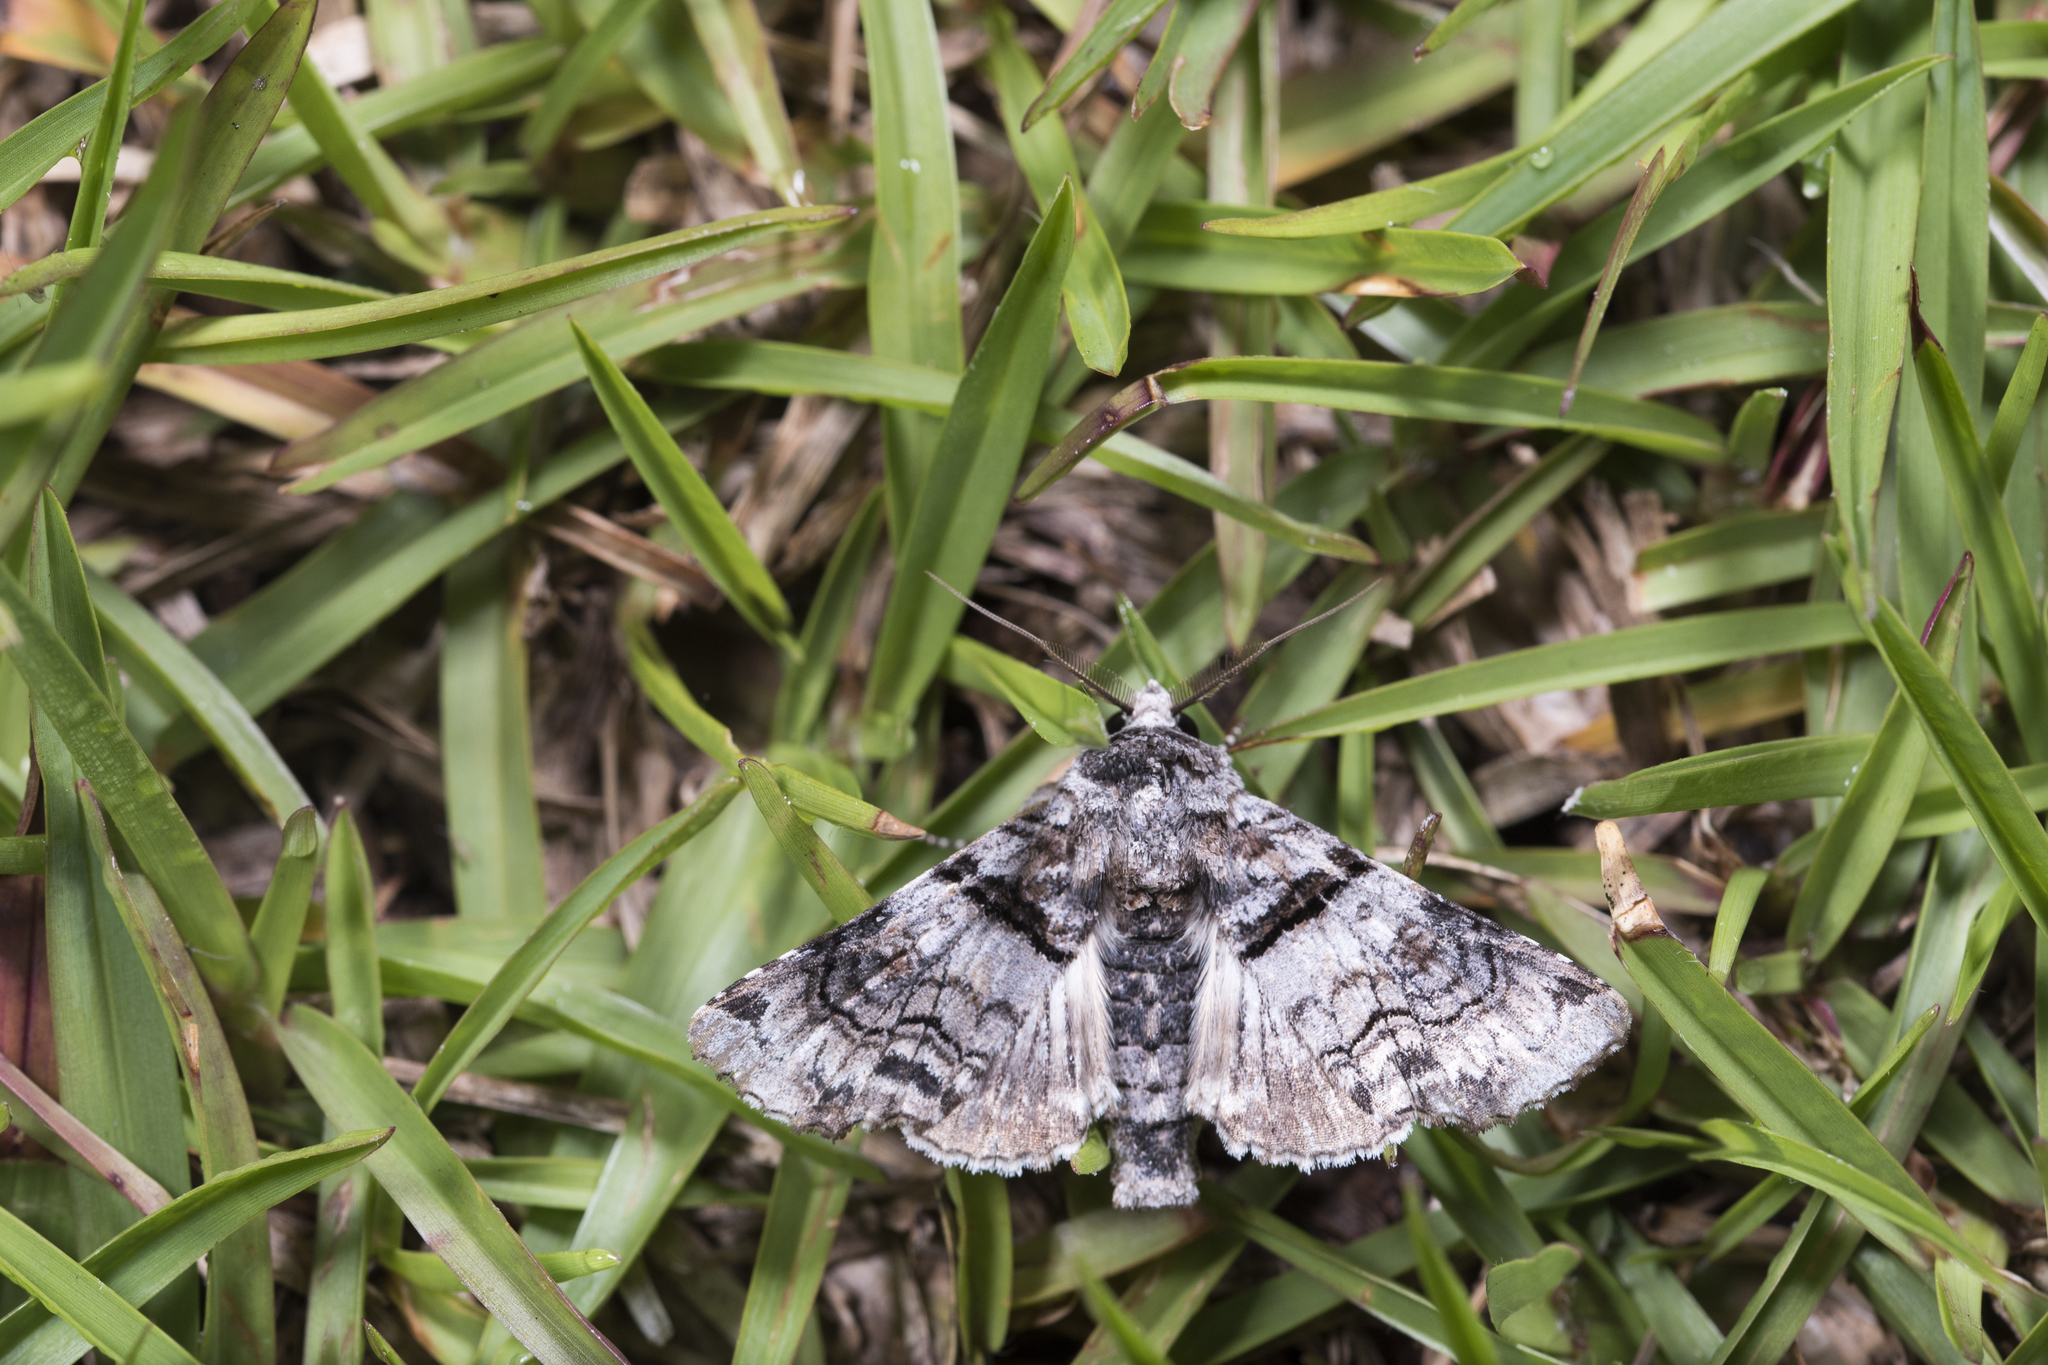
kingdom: Animalia
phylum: Arthropoda
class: Insecta
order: Lepidoptera
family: Euteliidae
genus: Aplotelia
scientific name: Aplotelia diplographa
